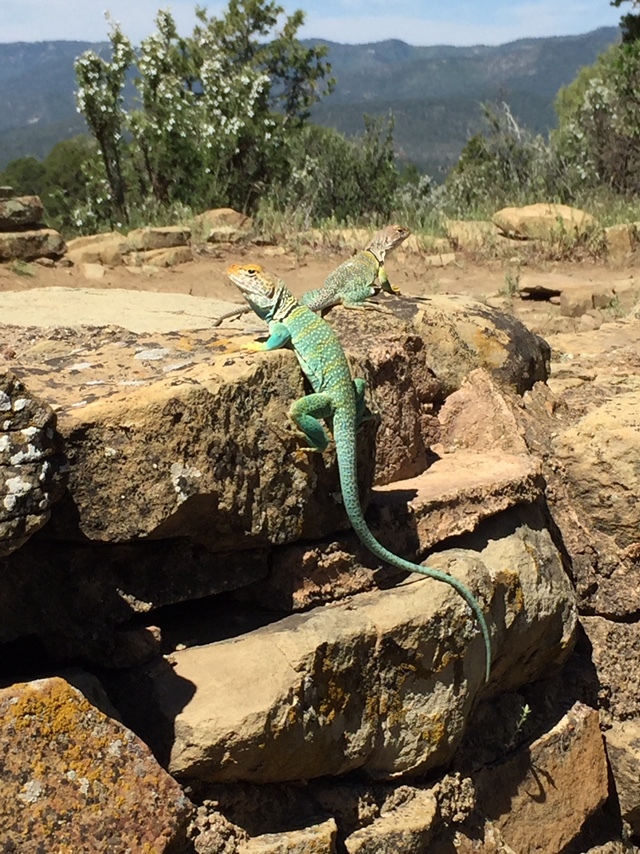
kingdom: Animalia
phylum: Chordata
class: Squamata
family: Crotaphytidae
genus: Crotaphytus
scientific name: Crotaphytus collaris
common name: Collared lizard
